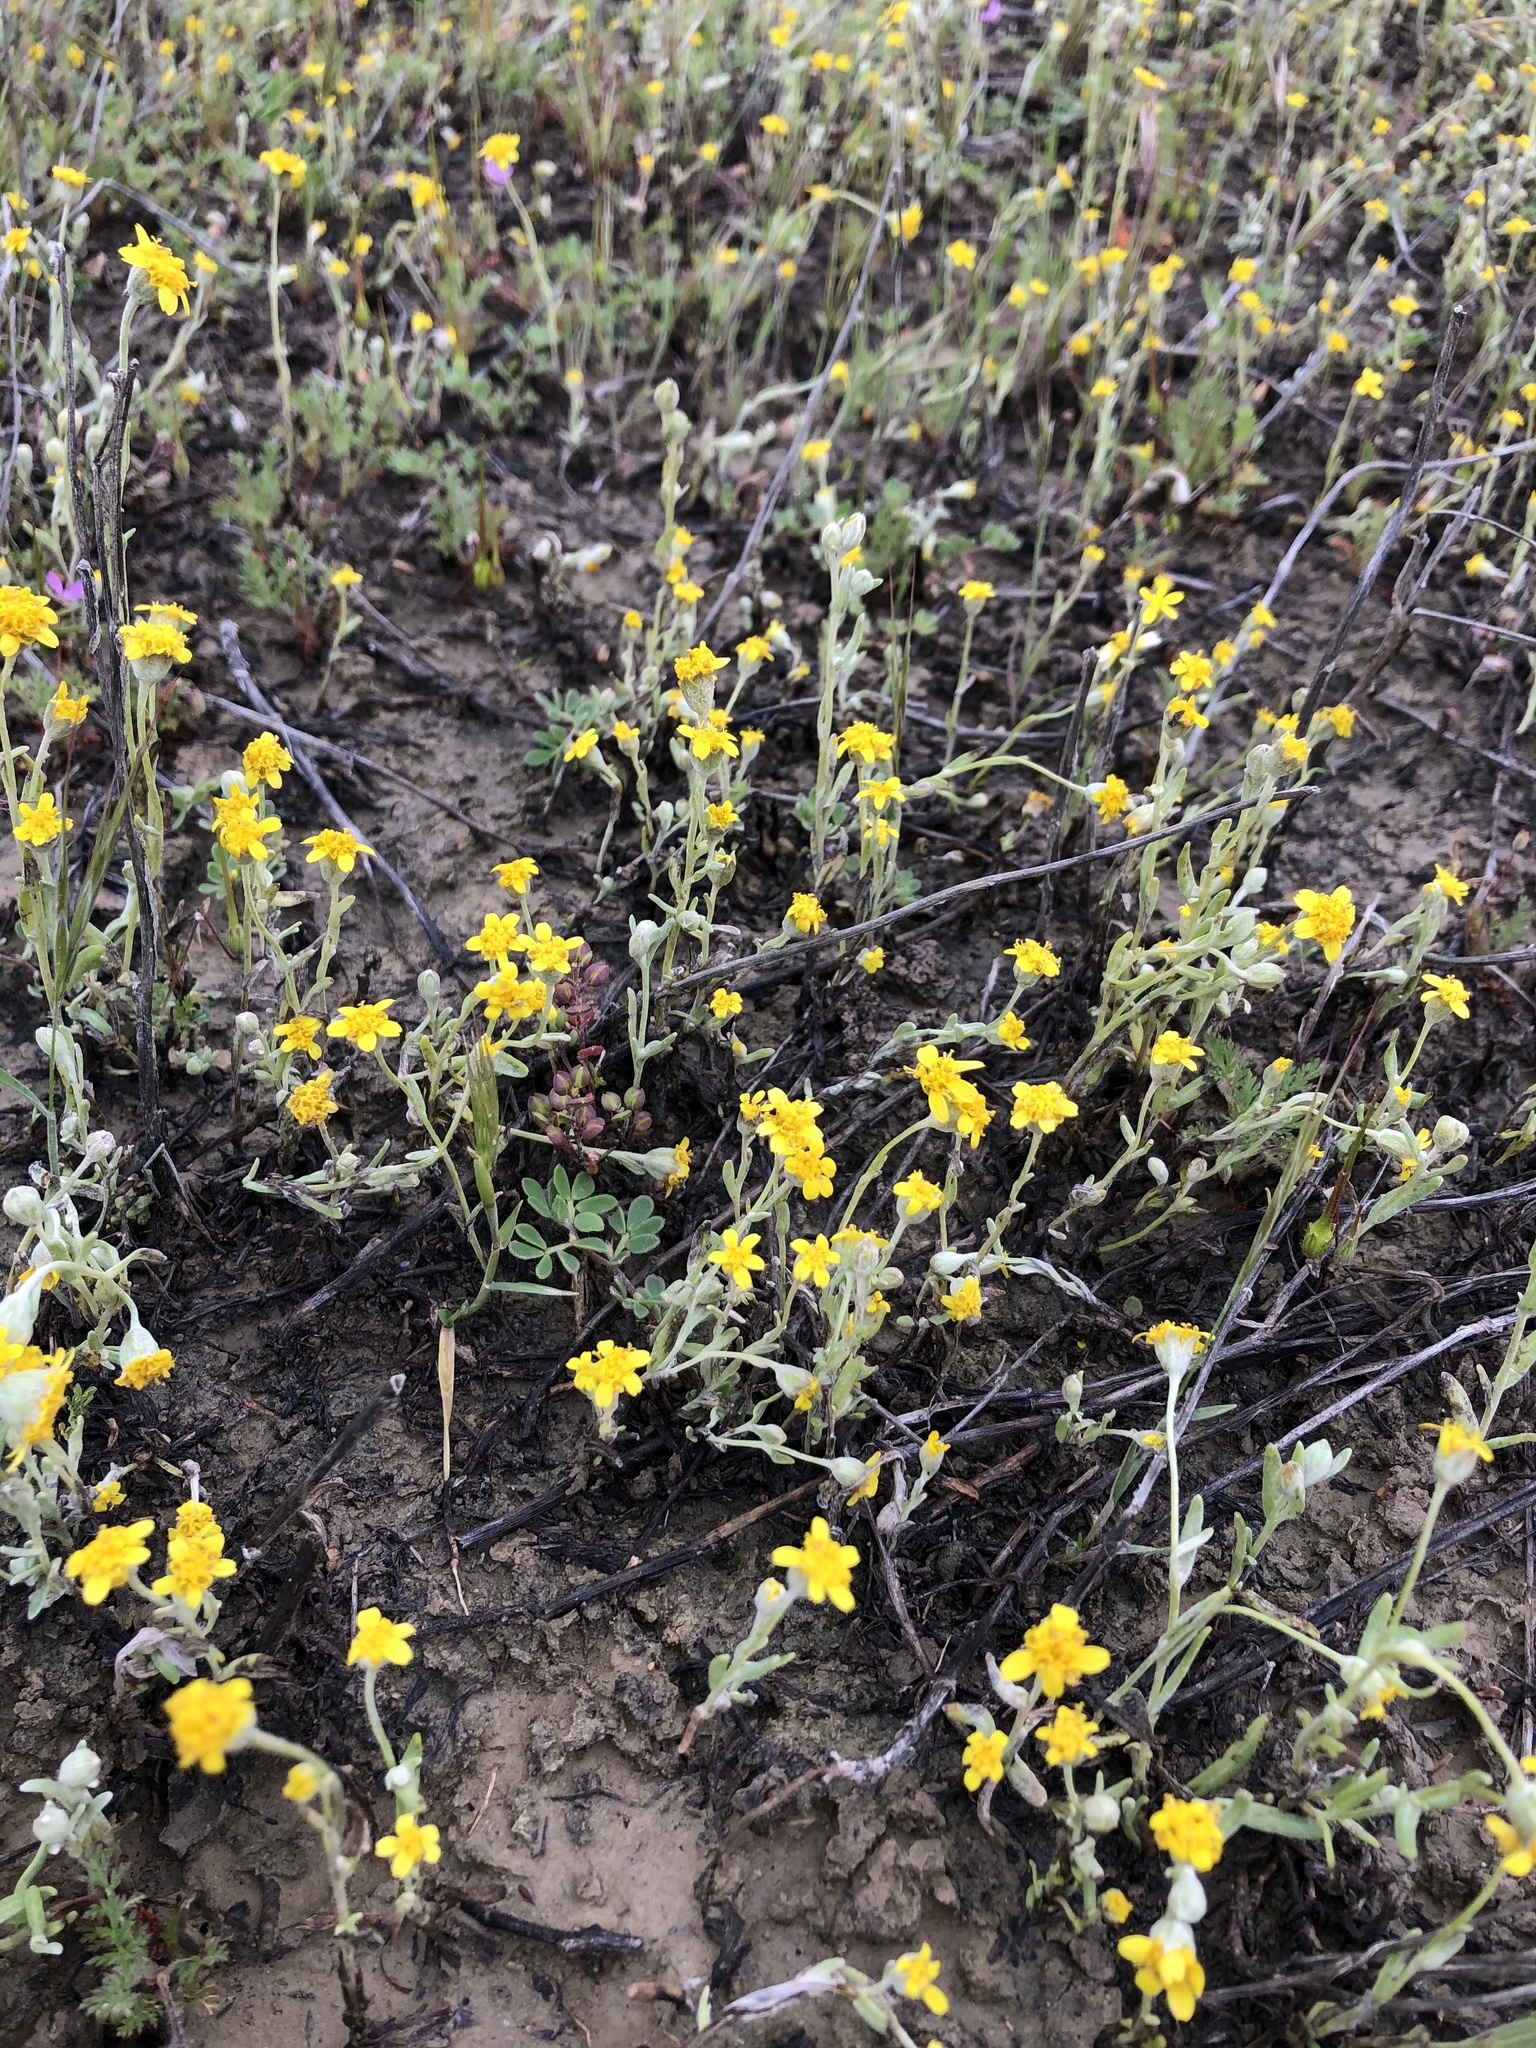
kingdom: Plantae
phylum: Tracheophyta
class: Magnoliopsida
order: Asterales
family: Asteraceae
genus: Monolopia
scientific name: Monolopia stricta
